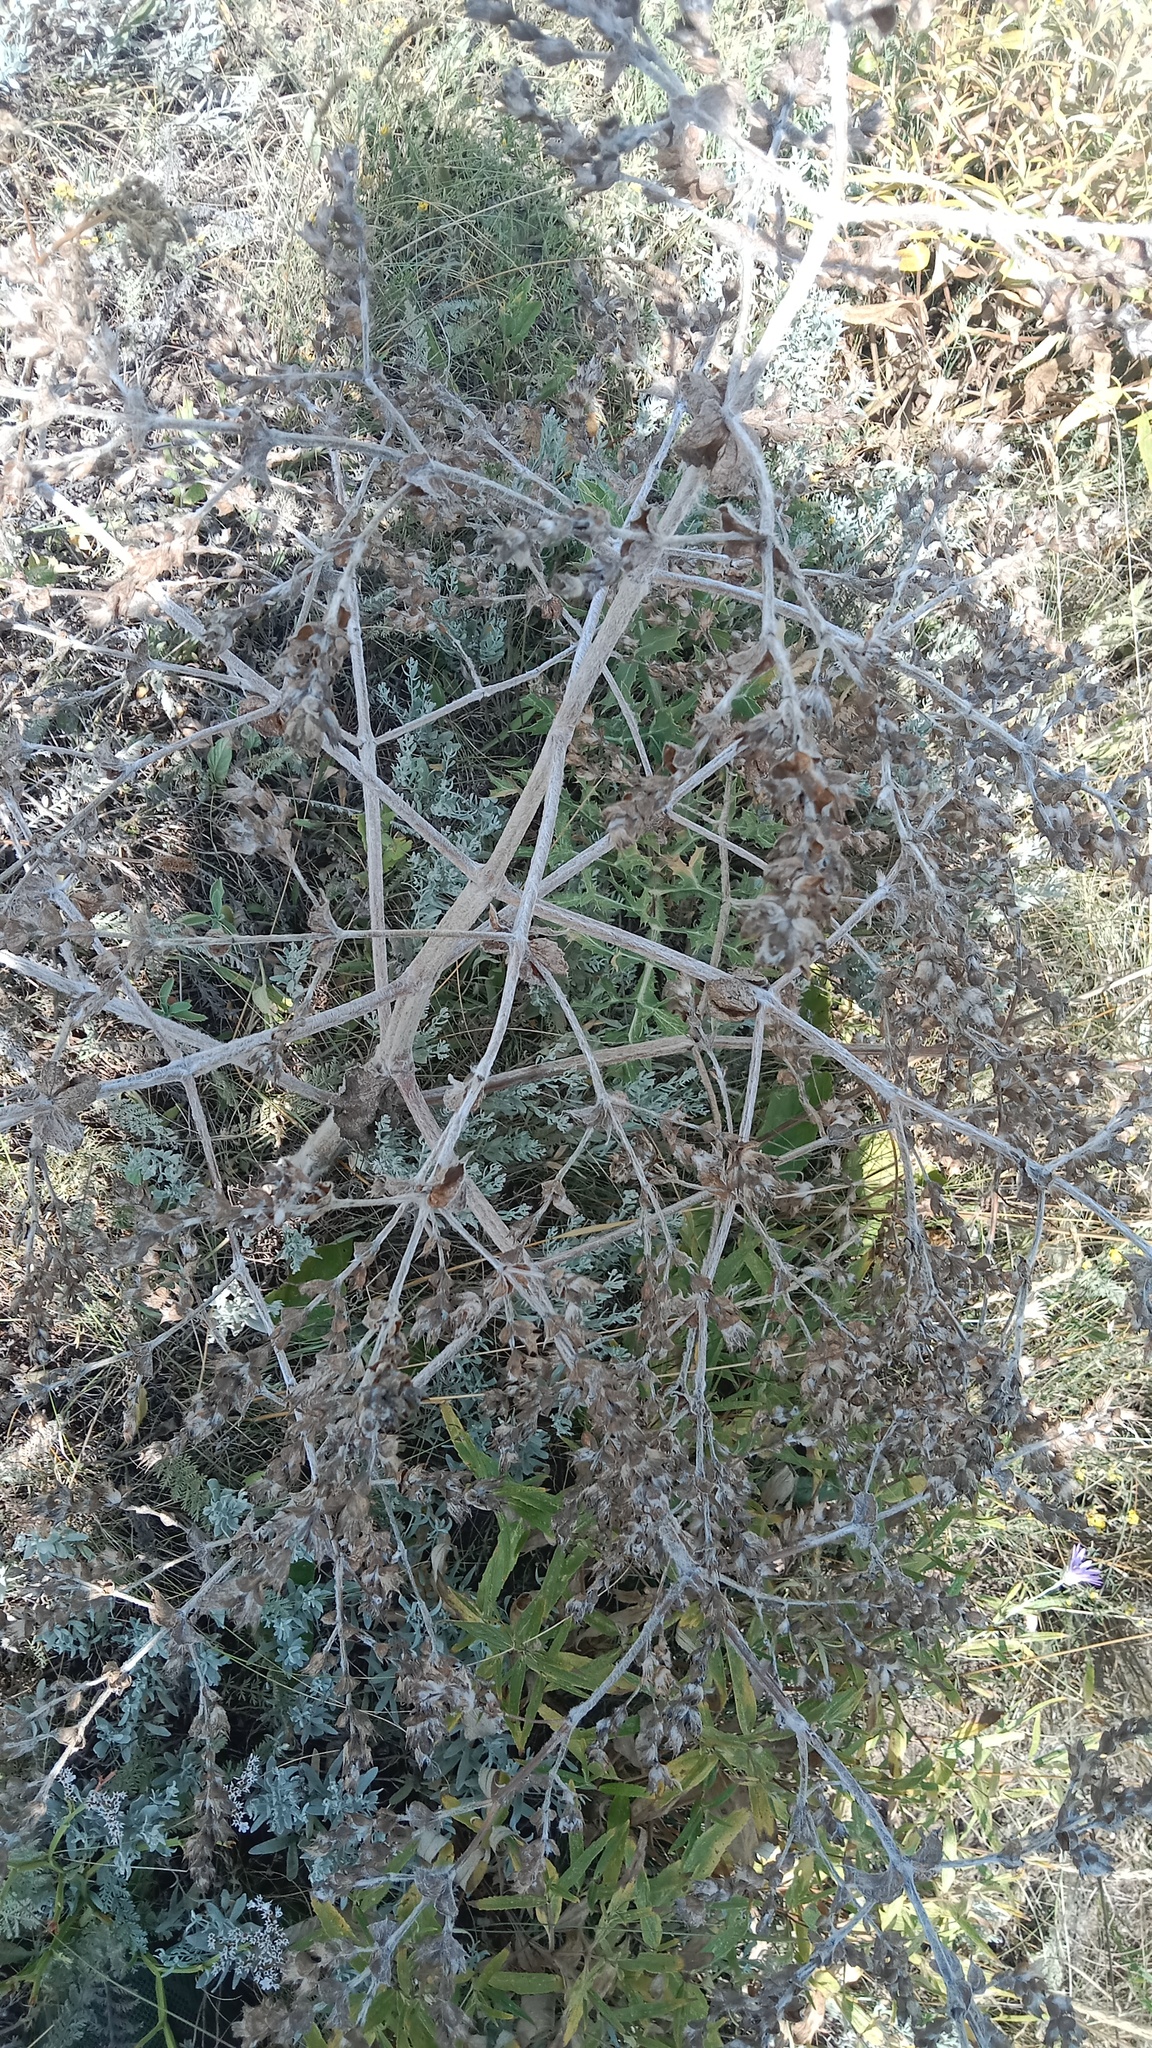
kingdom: Plantae
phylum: Tracheophyta
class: Magnoliopsida
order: Lamiales
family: Lamiaceae
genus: Salvia
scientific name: Salvia aethiopis
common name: Mediterranean sage
